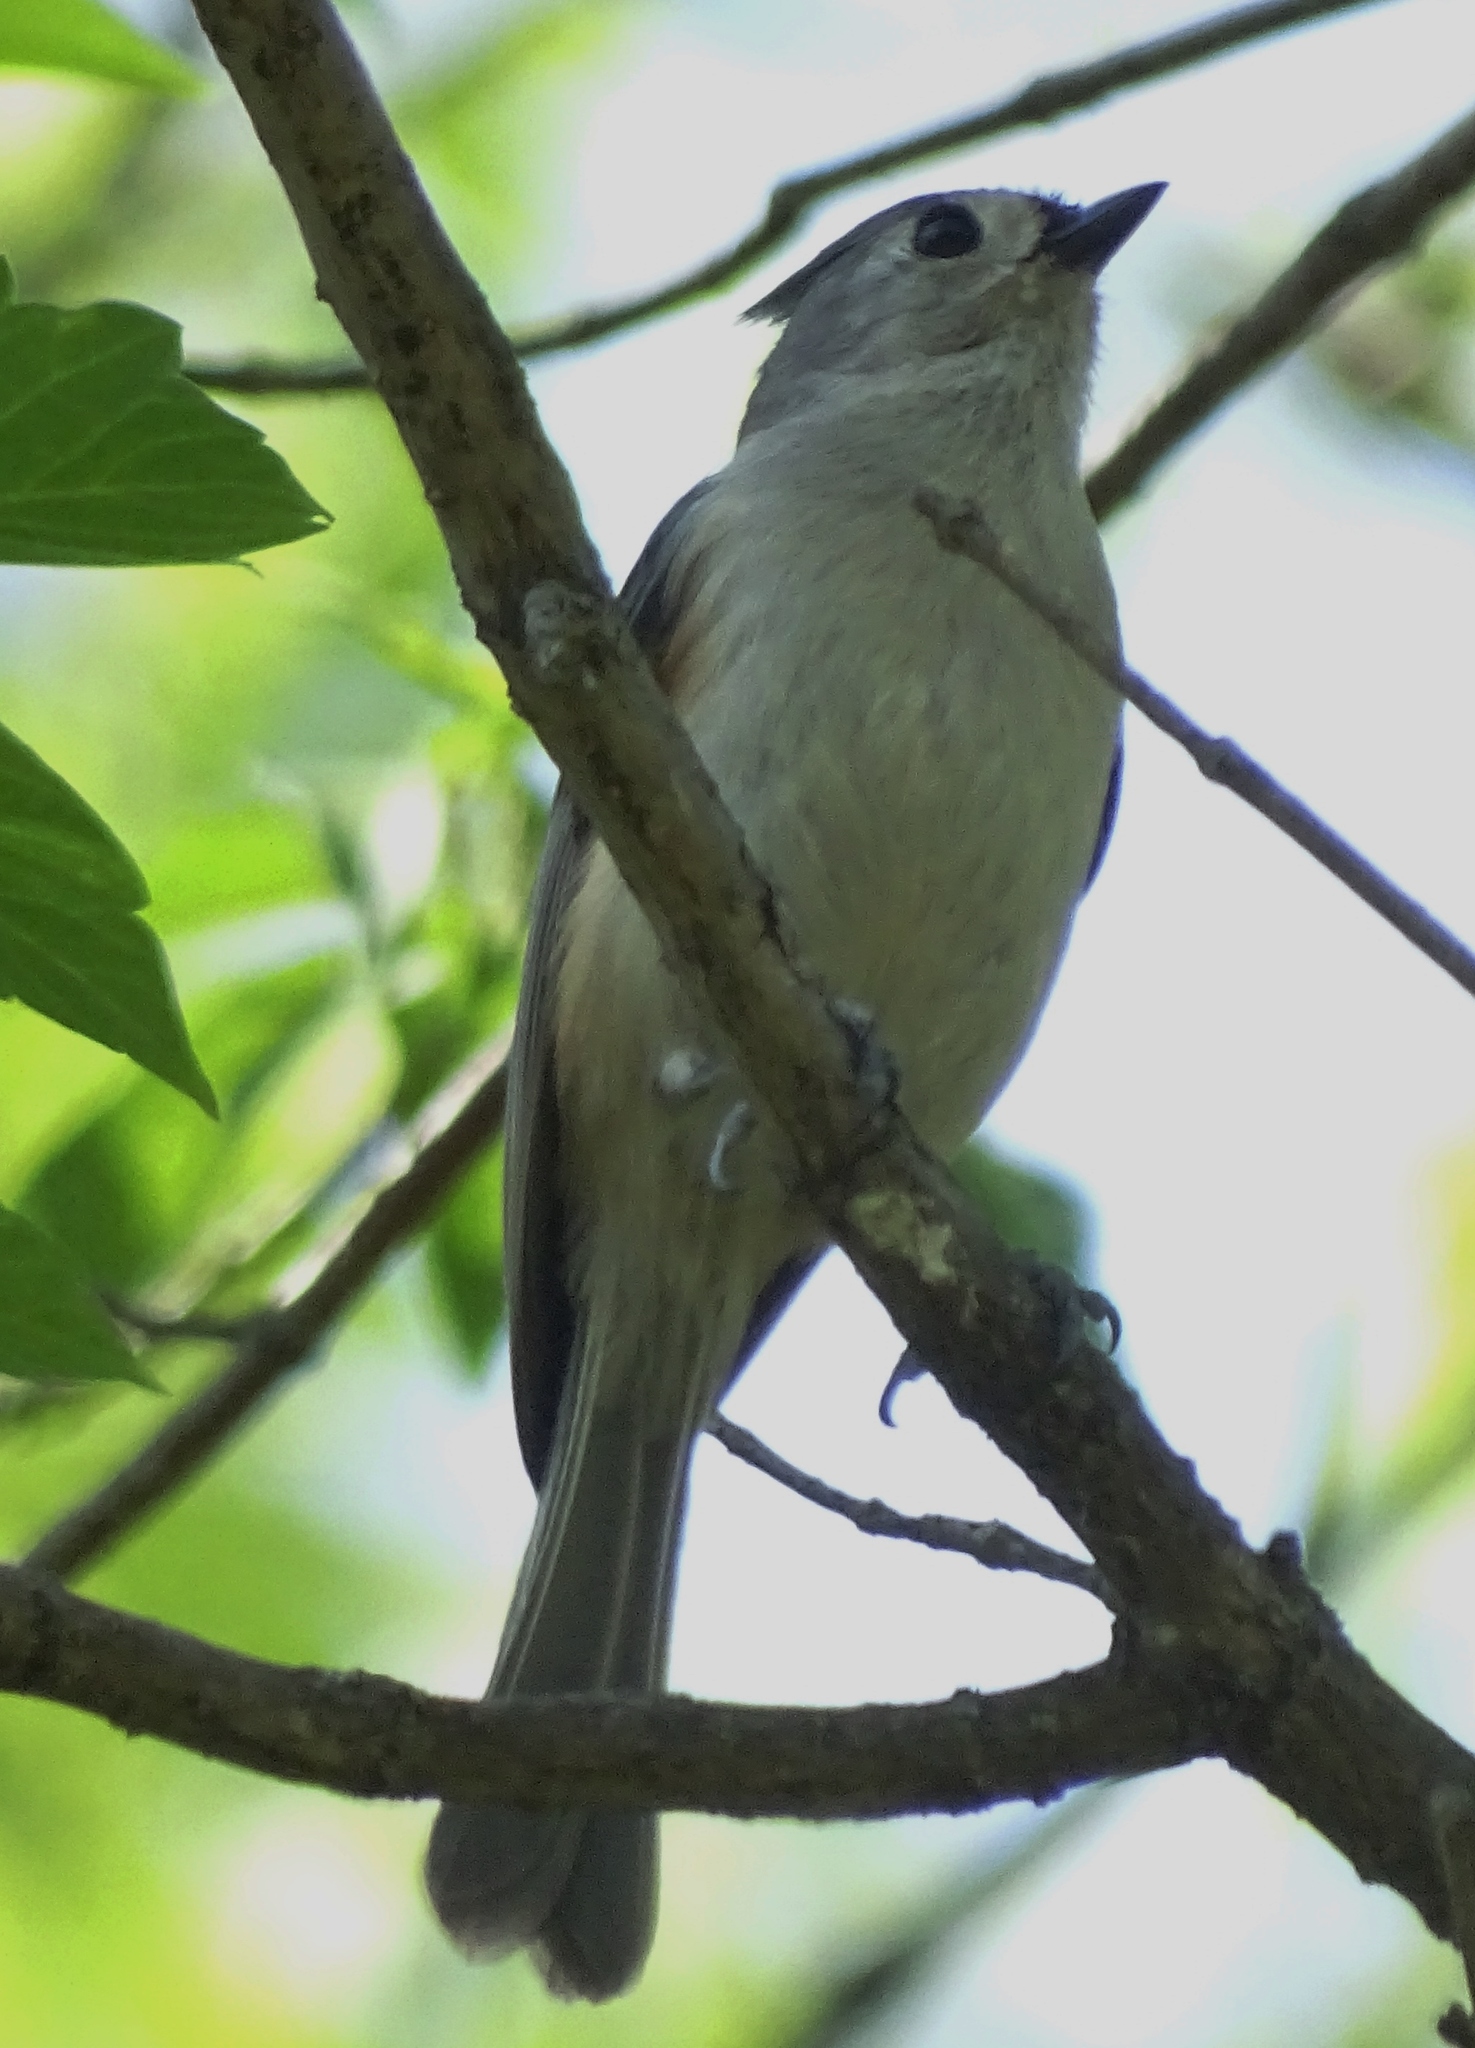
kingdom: Animalia
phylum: Chordata
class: Aves
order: Passeriformes
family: Paridae
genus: Baeolophus
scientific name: Baeolophus bicolor
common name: Tufted titmouse
